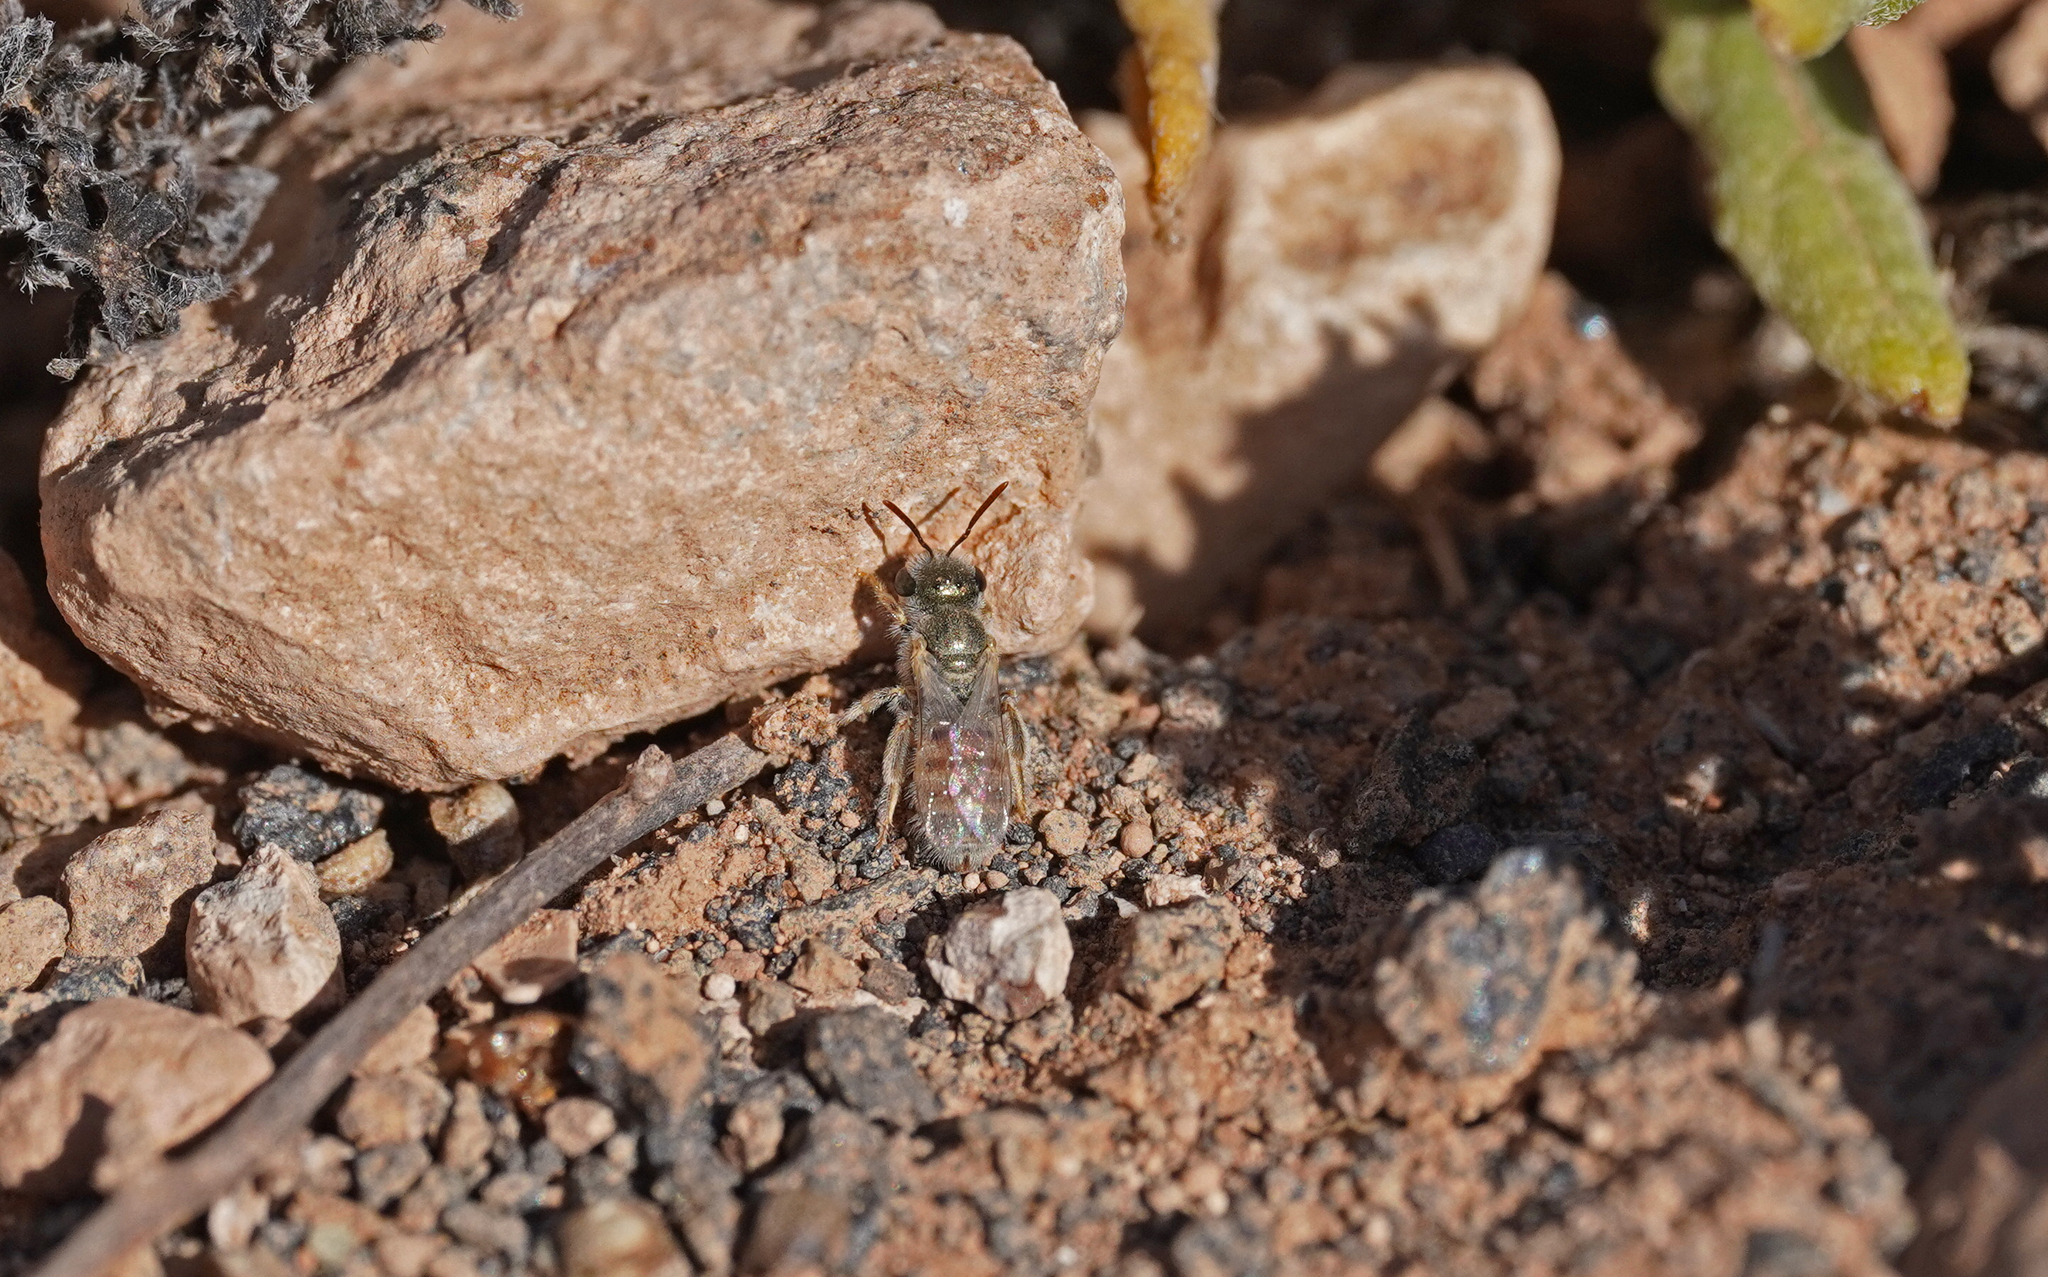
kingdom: Animalia
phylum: Arthropoda
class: Insecta
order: Hymenoptera
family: Halictidae
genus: Halictus
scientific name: Halictus concinnus
